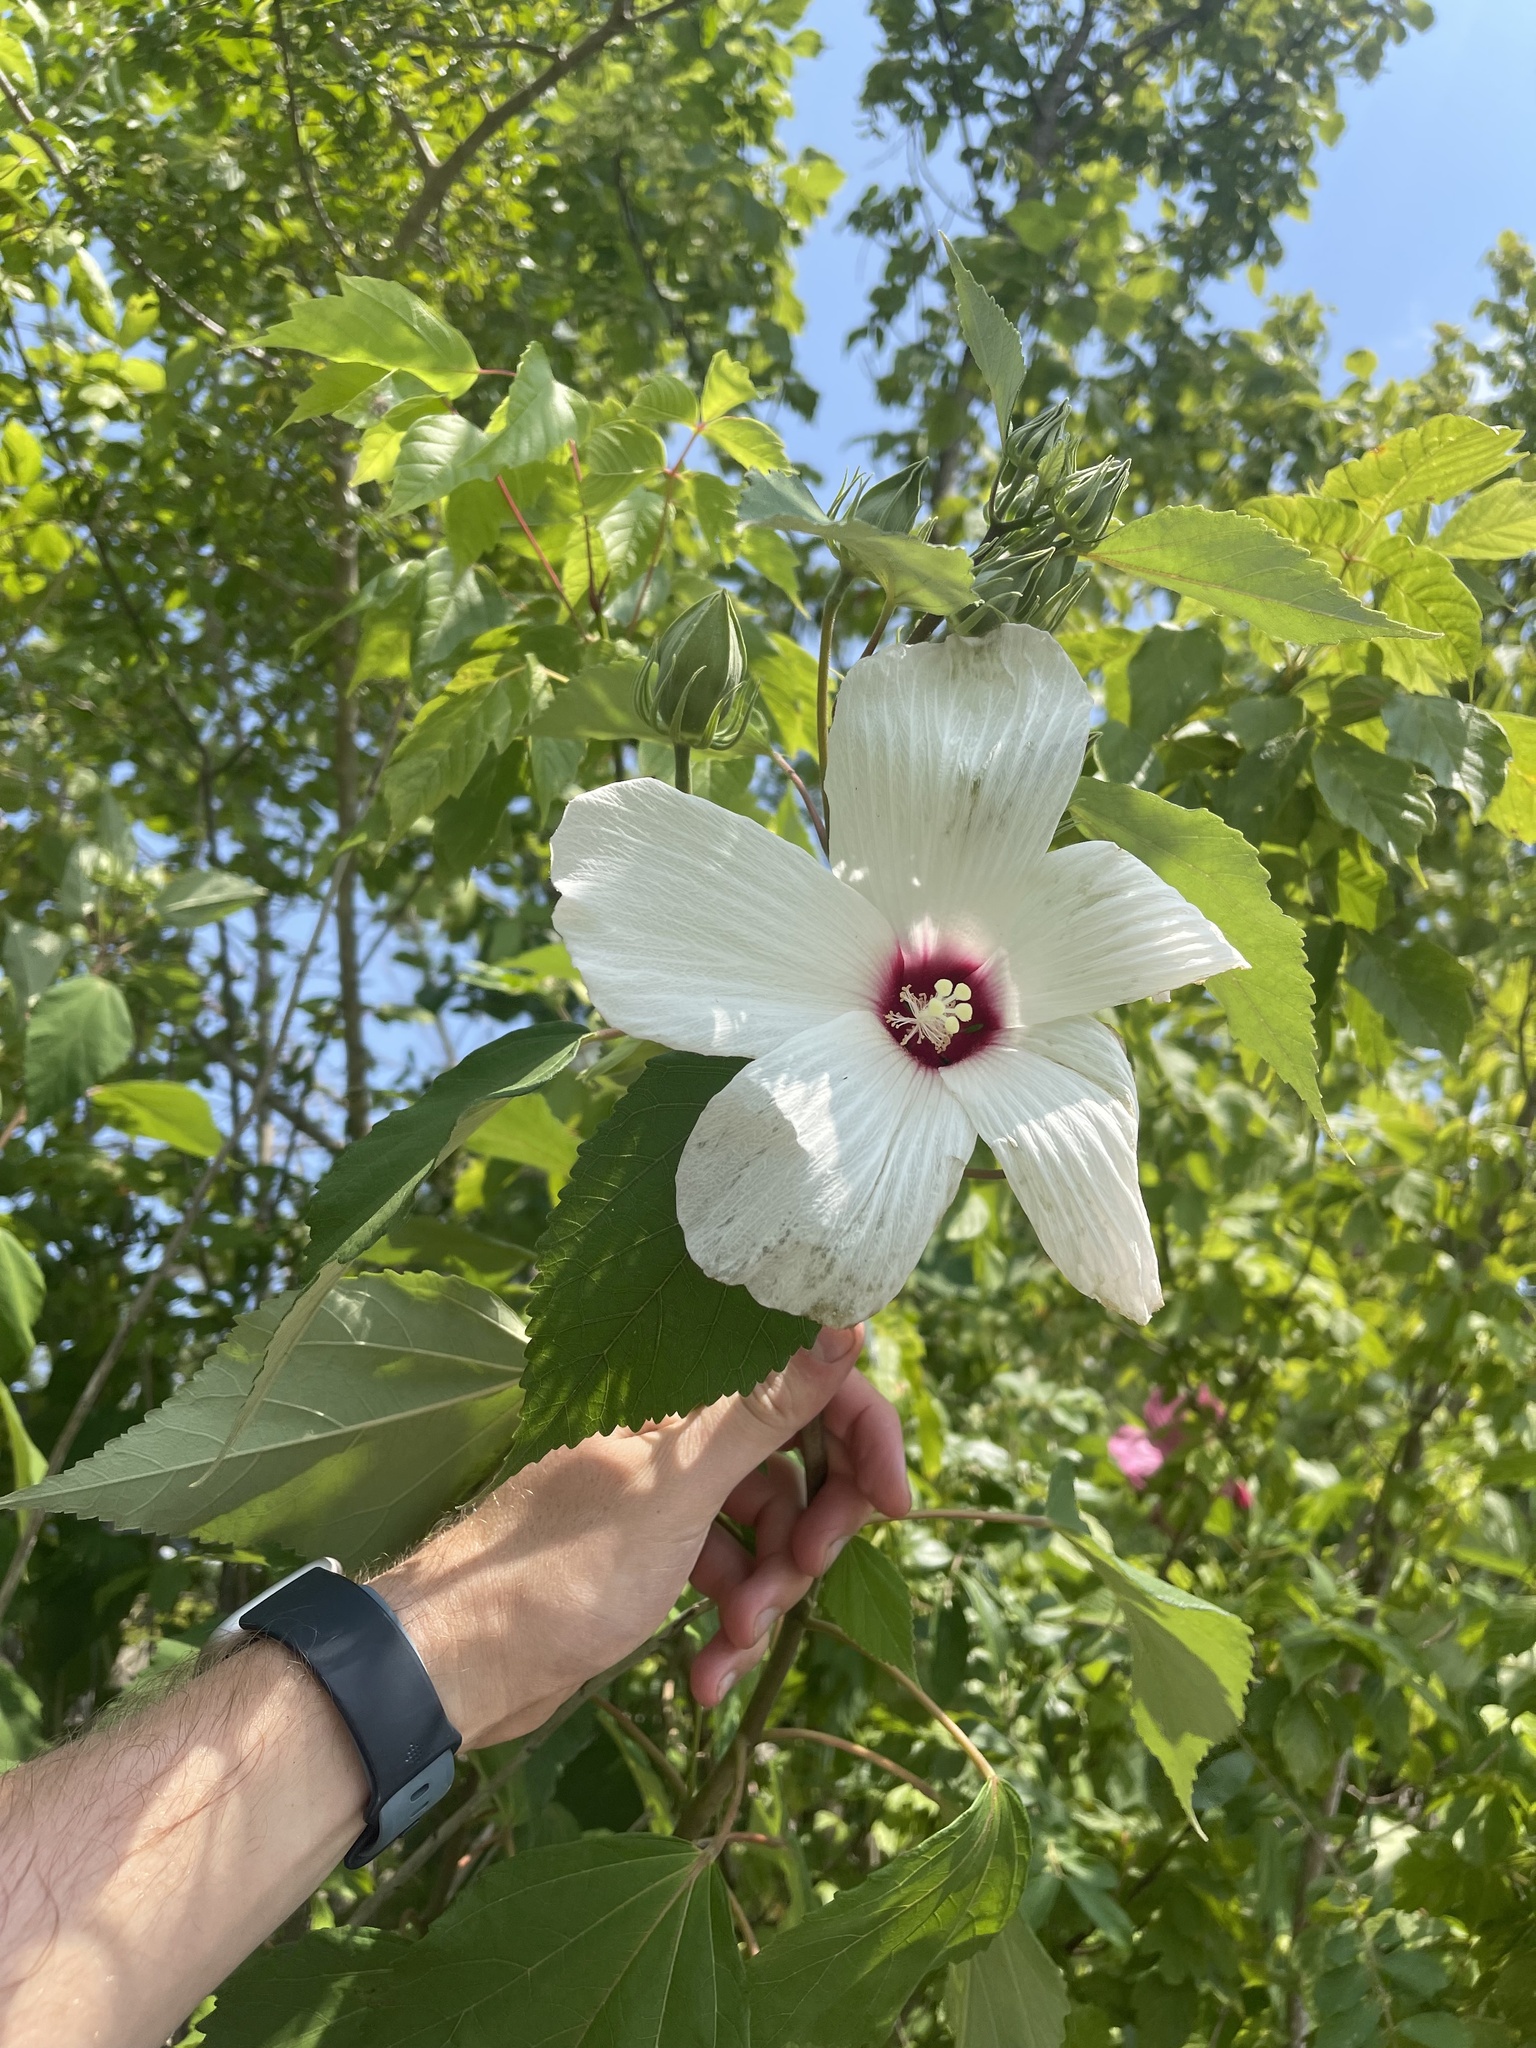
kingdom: Plantae
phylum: Tracheophyta
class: Magnoliopsida
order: Malvales
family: Malvaceae
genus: Hibiscus
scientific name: Hibiscus moscheutos
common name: Common rose-mallow
